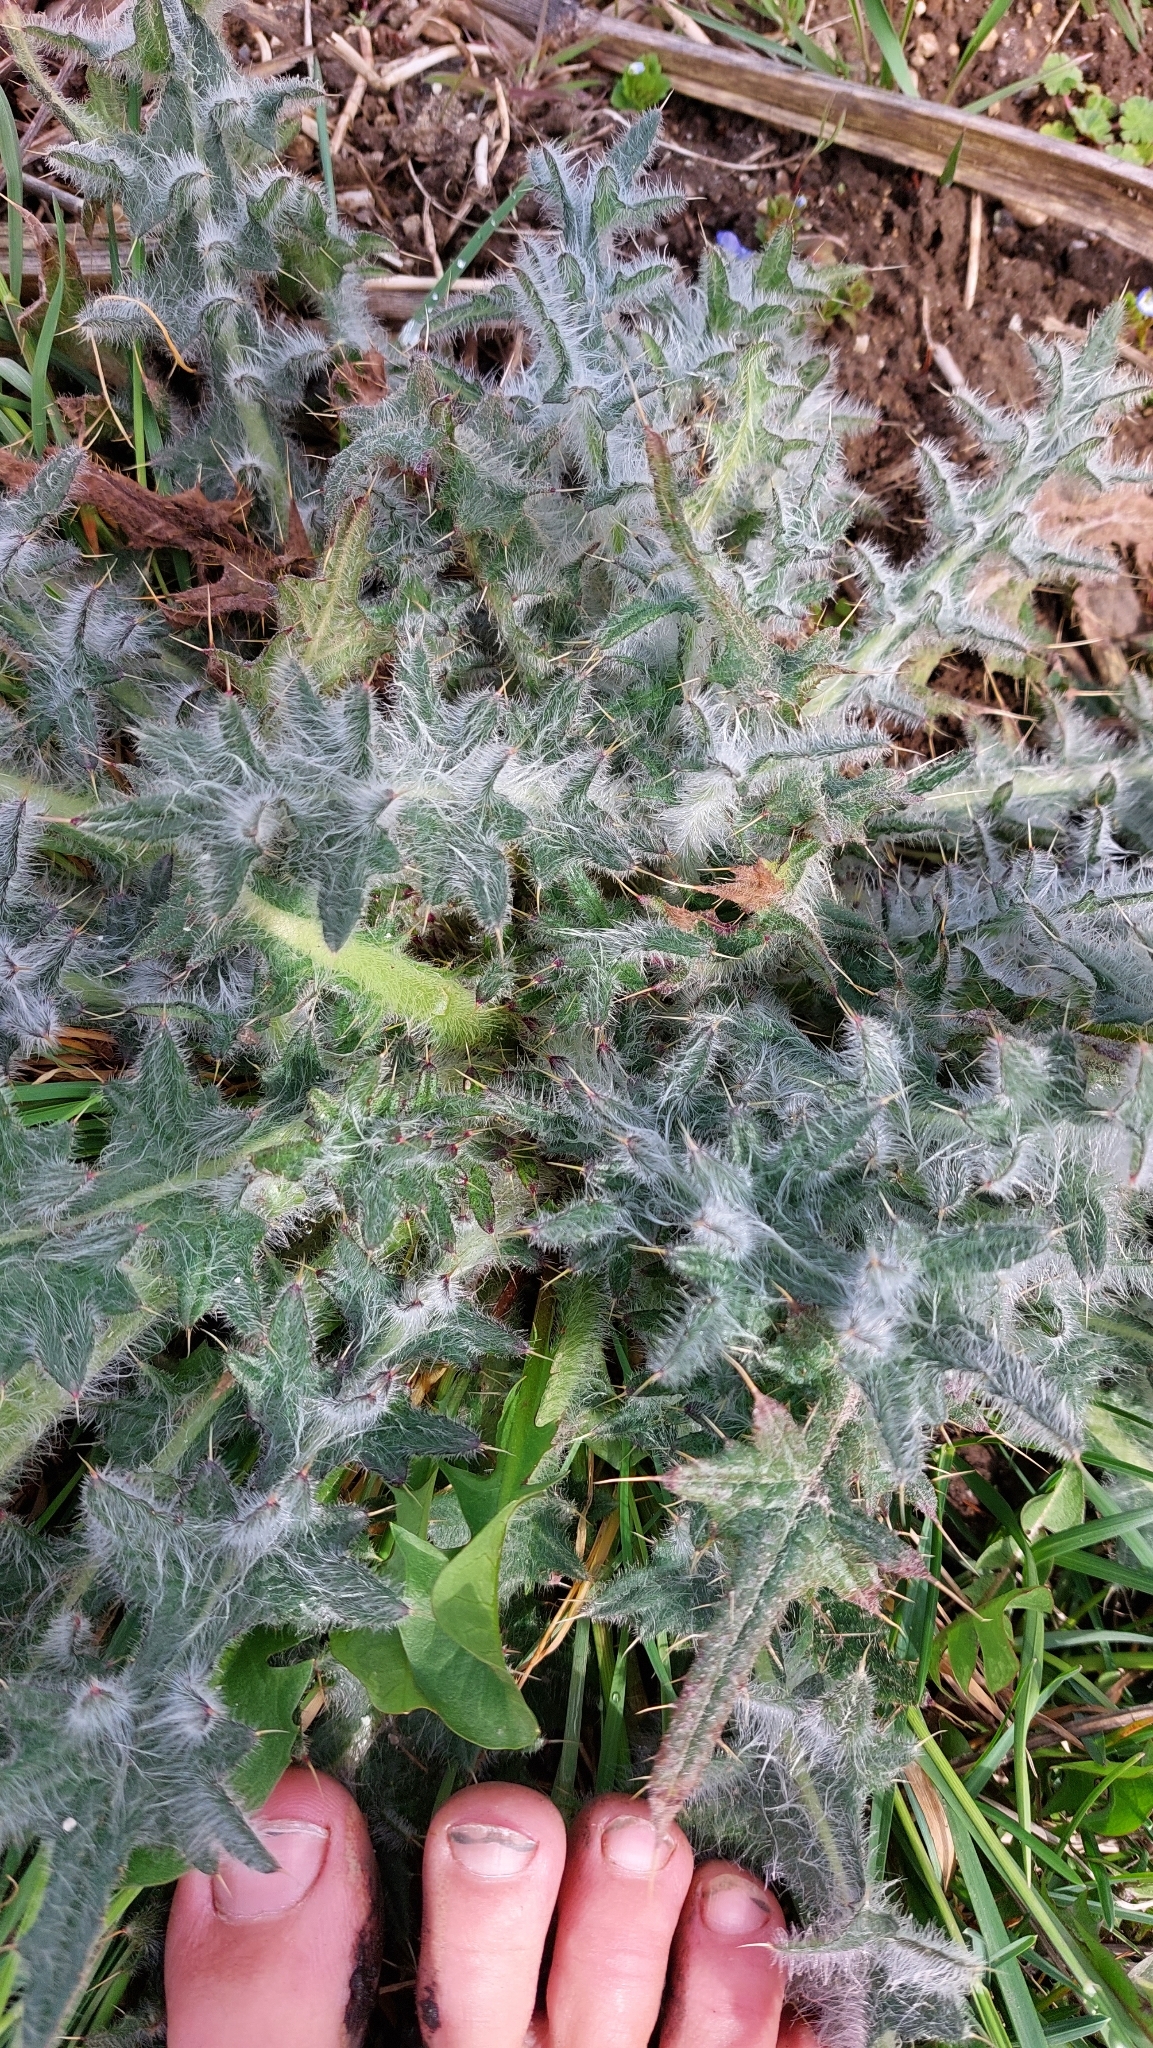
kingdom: Plantae
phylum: Tracheophyta
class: Magnoliopsida
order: Asterales
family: Asteraceae
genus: Cirsium
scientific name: Cirsium vulgare
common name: Bull thistle
